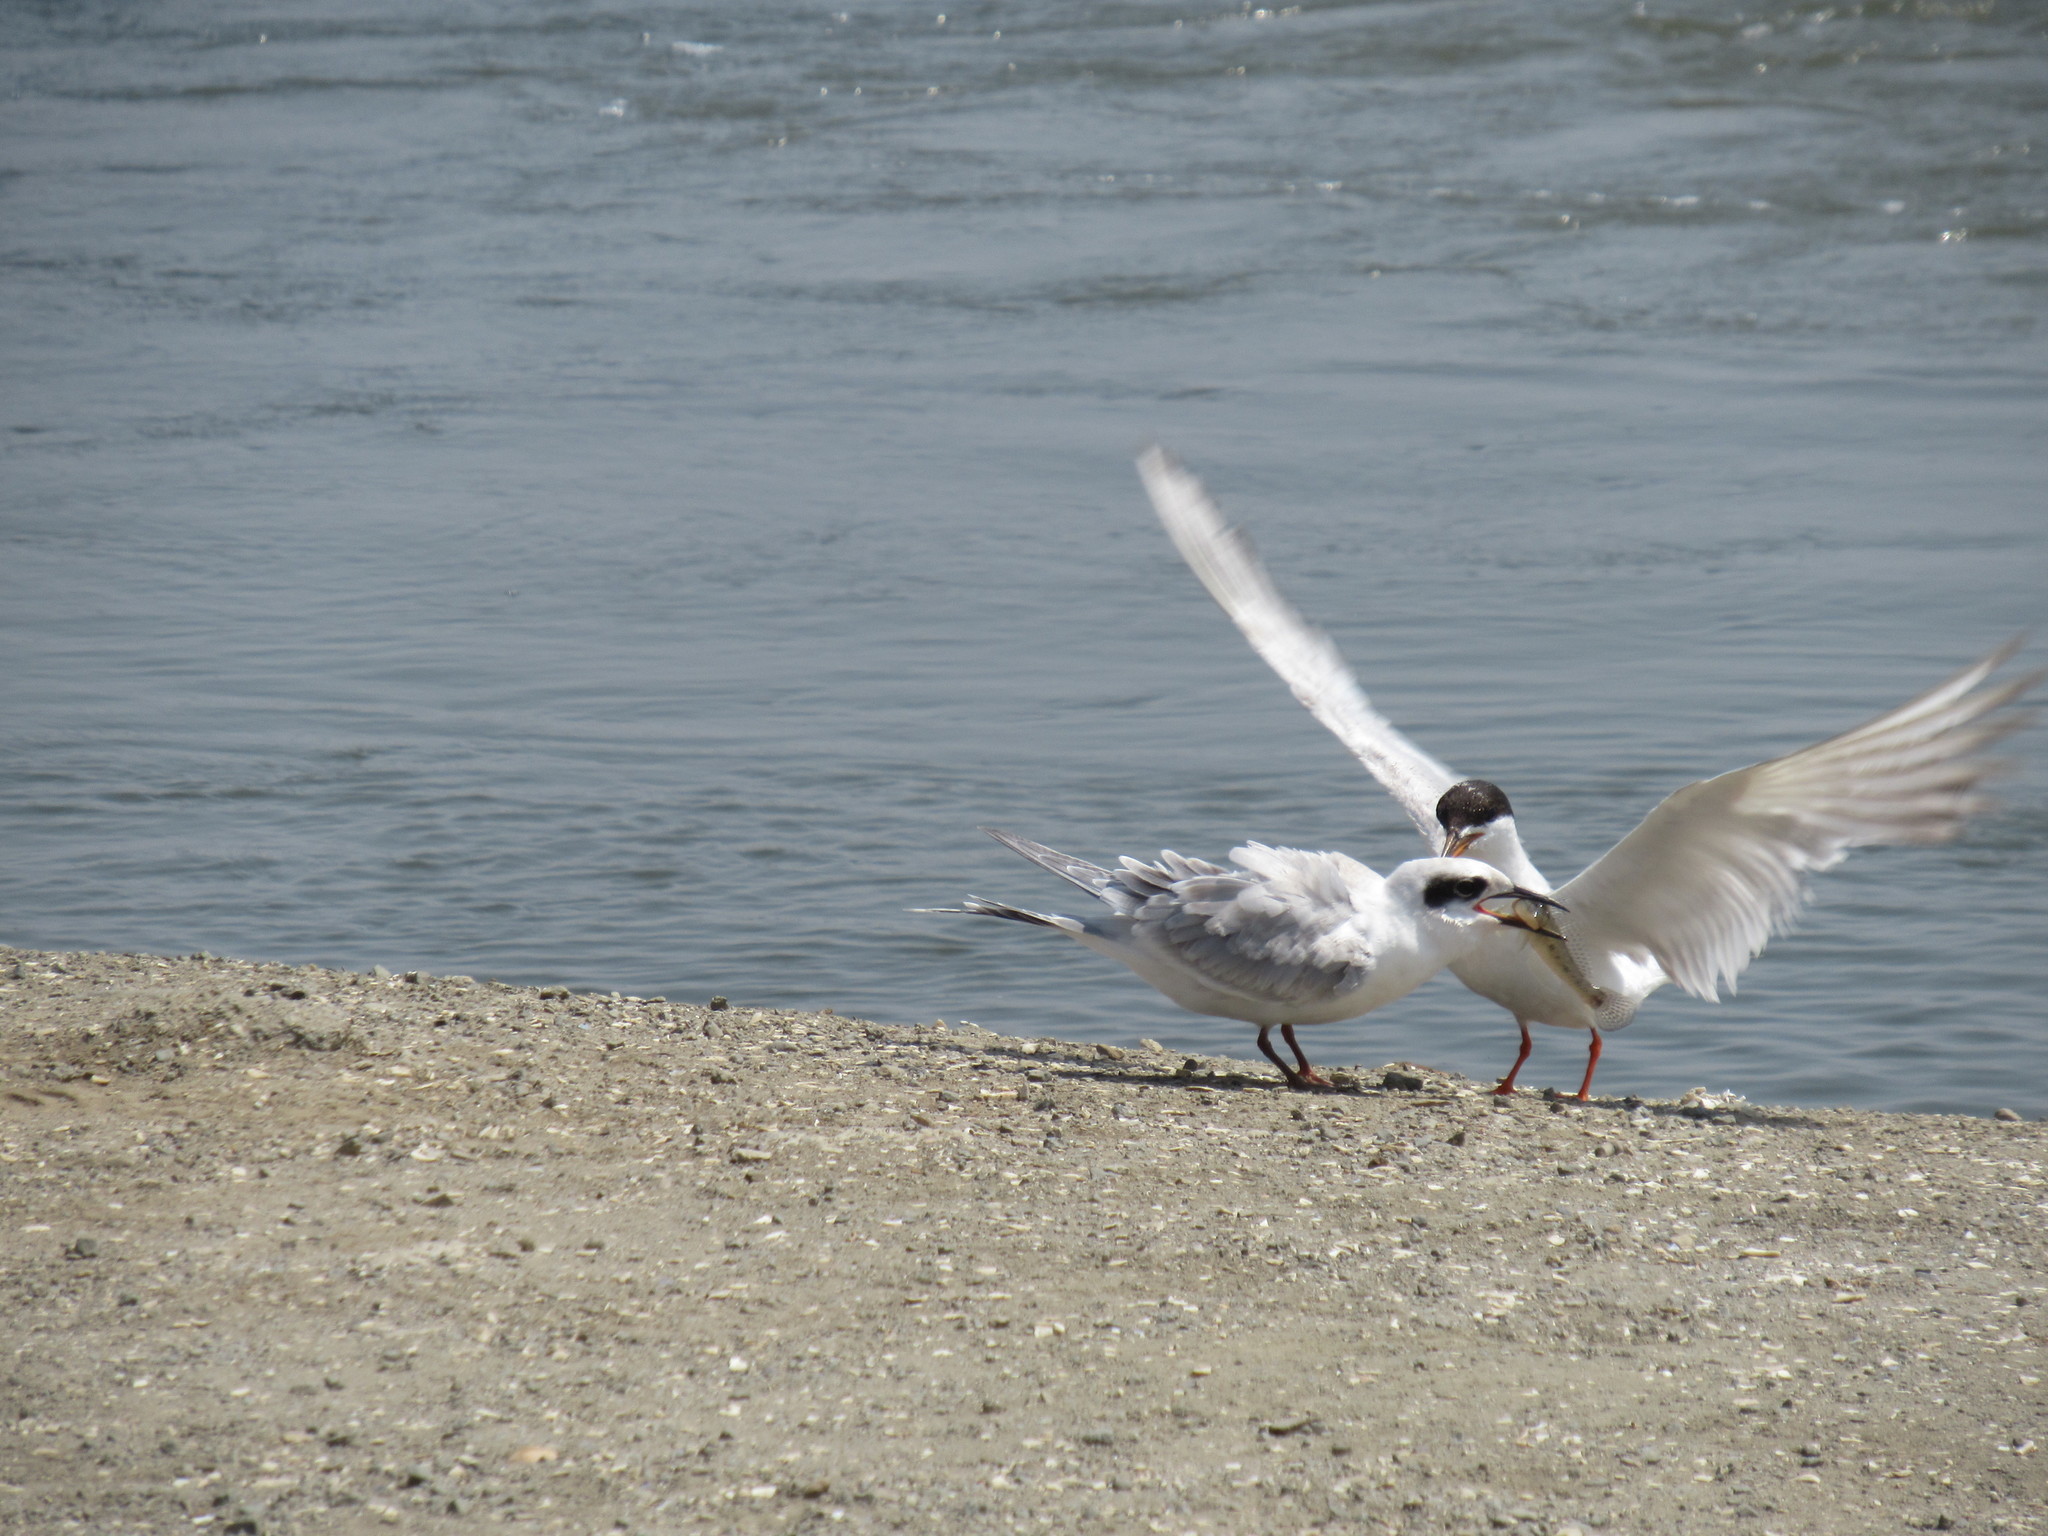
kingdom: Animalia
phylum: Chordata
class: Aves
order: Charadriiformes
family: Laridae
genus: Sterna
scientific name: Sterna forsteri
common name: Forster's tern
